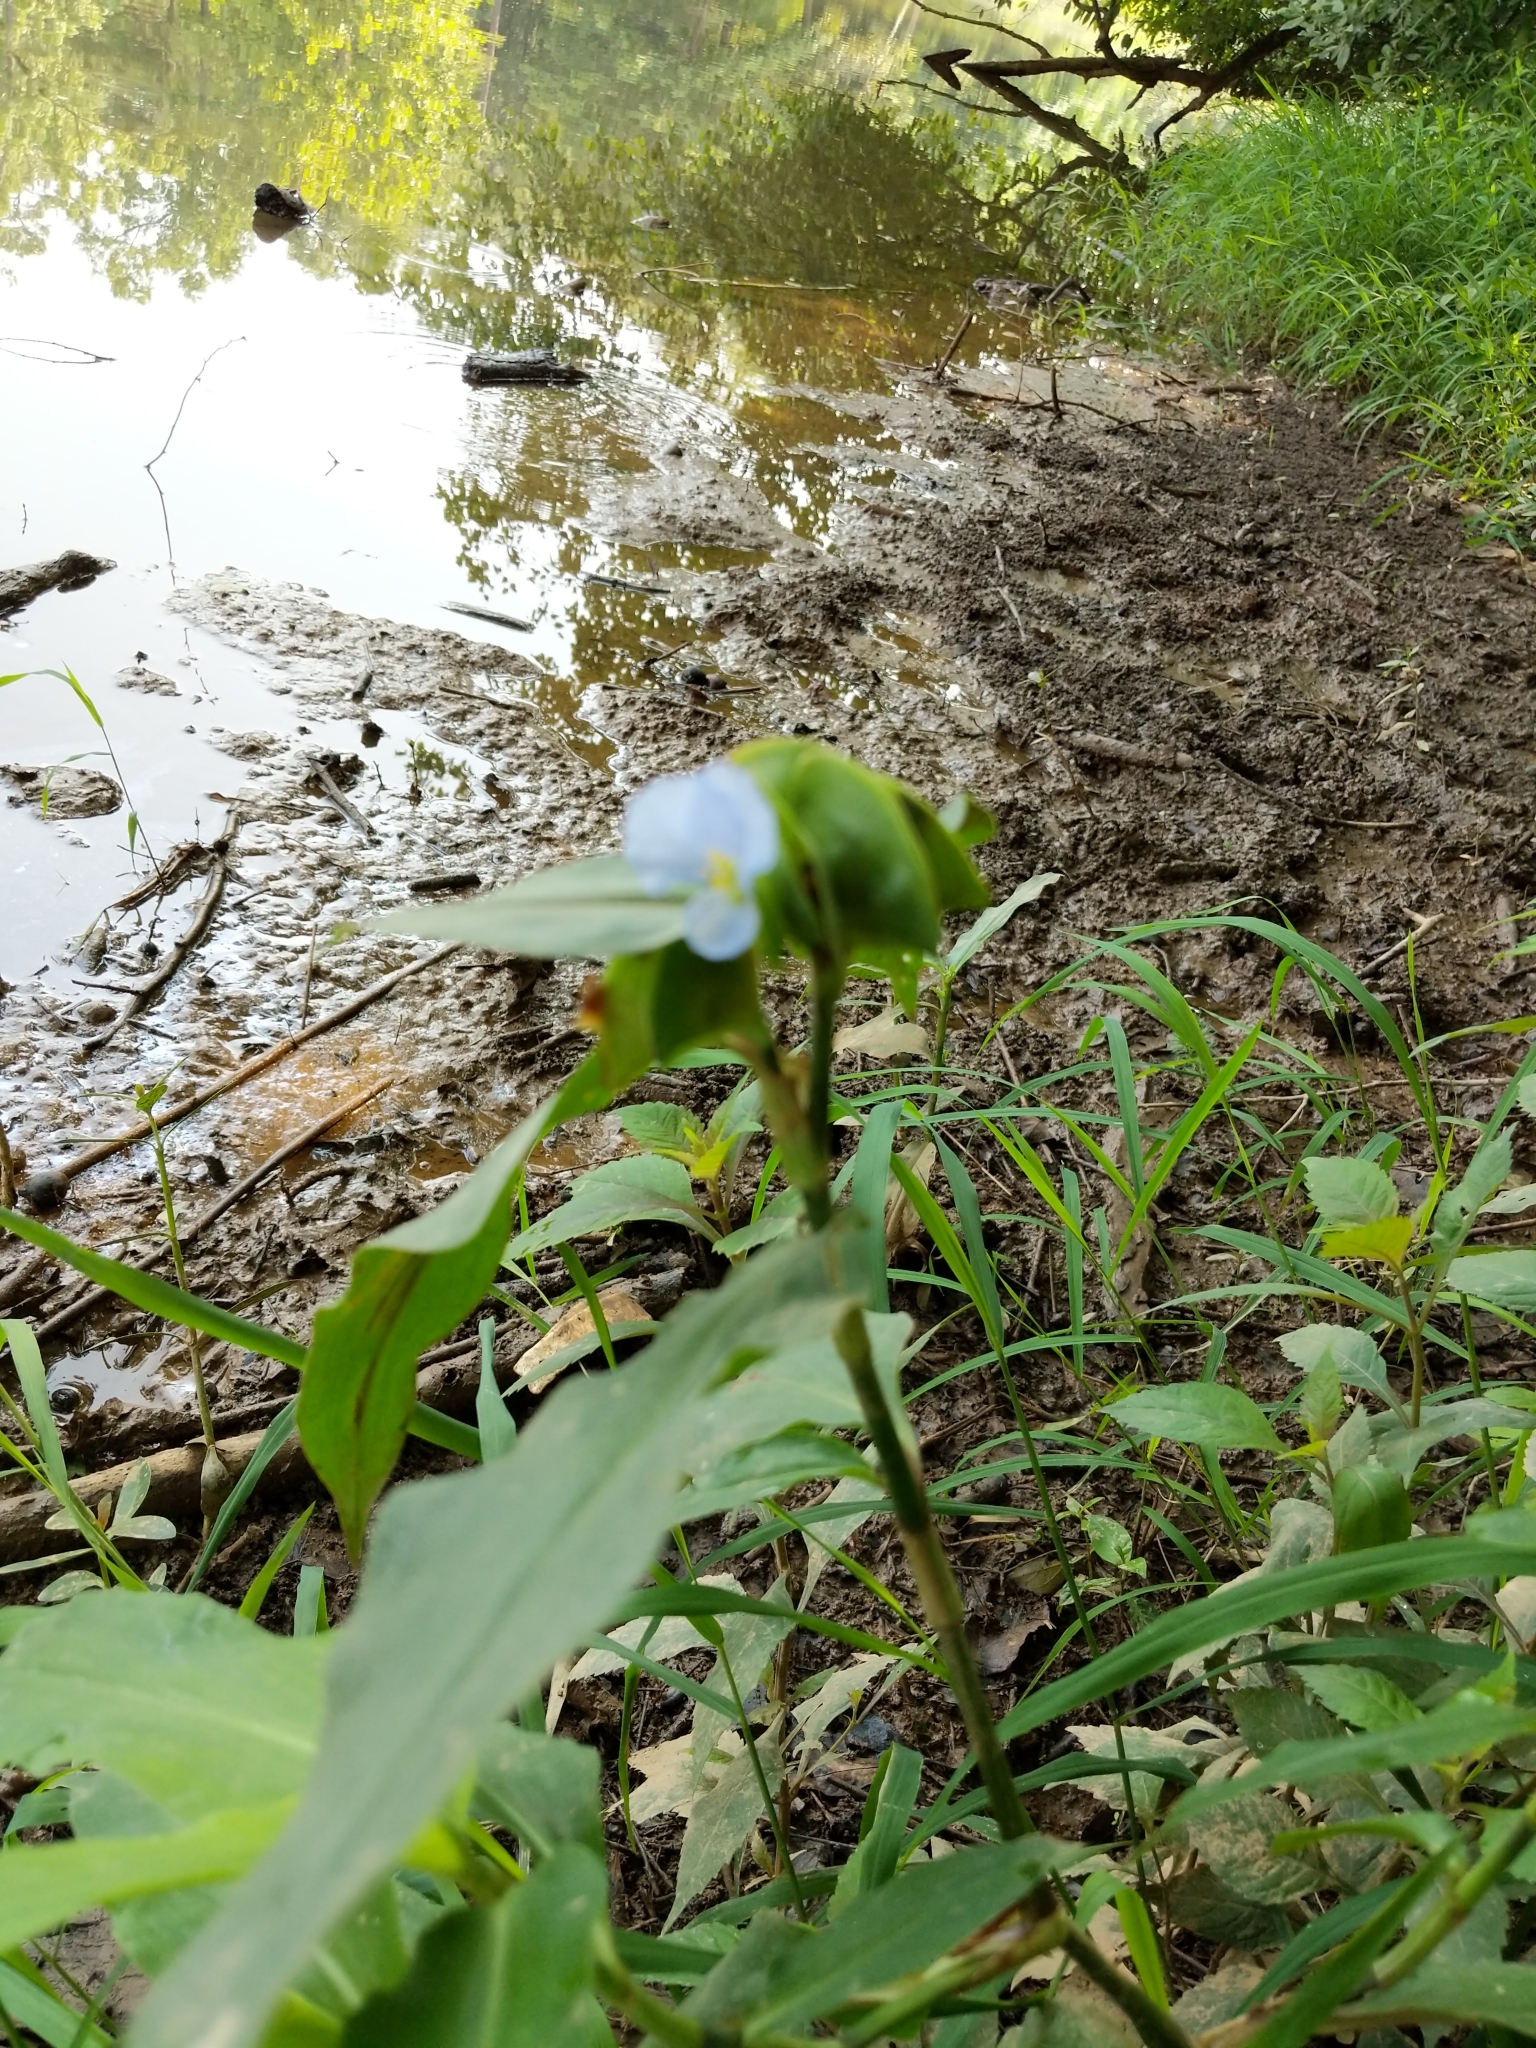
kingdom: Plantae
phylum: Tracheophyta
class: Liliopsida
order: Commelinales
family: Commelinaceae
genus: Commelina
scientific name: Commelina virginica
